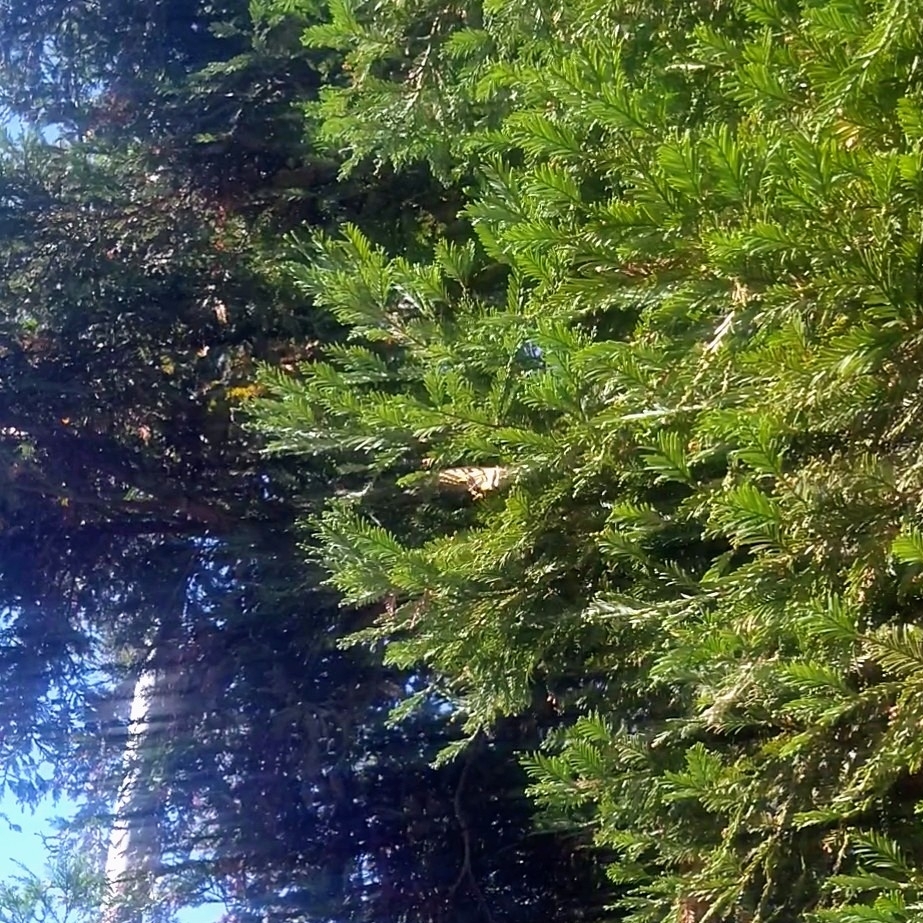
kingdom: Animalia
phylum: Arthropoda
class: Insecta
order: Lepidoptera
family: Papilionidae
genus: Papilio
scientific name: Papilio rutulus
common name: Western tiger swallowtail
